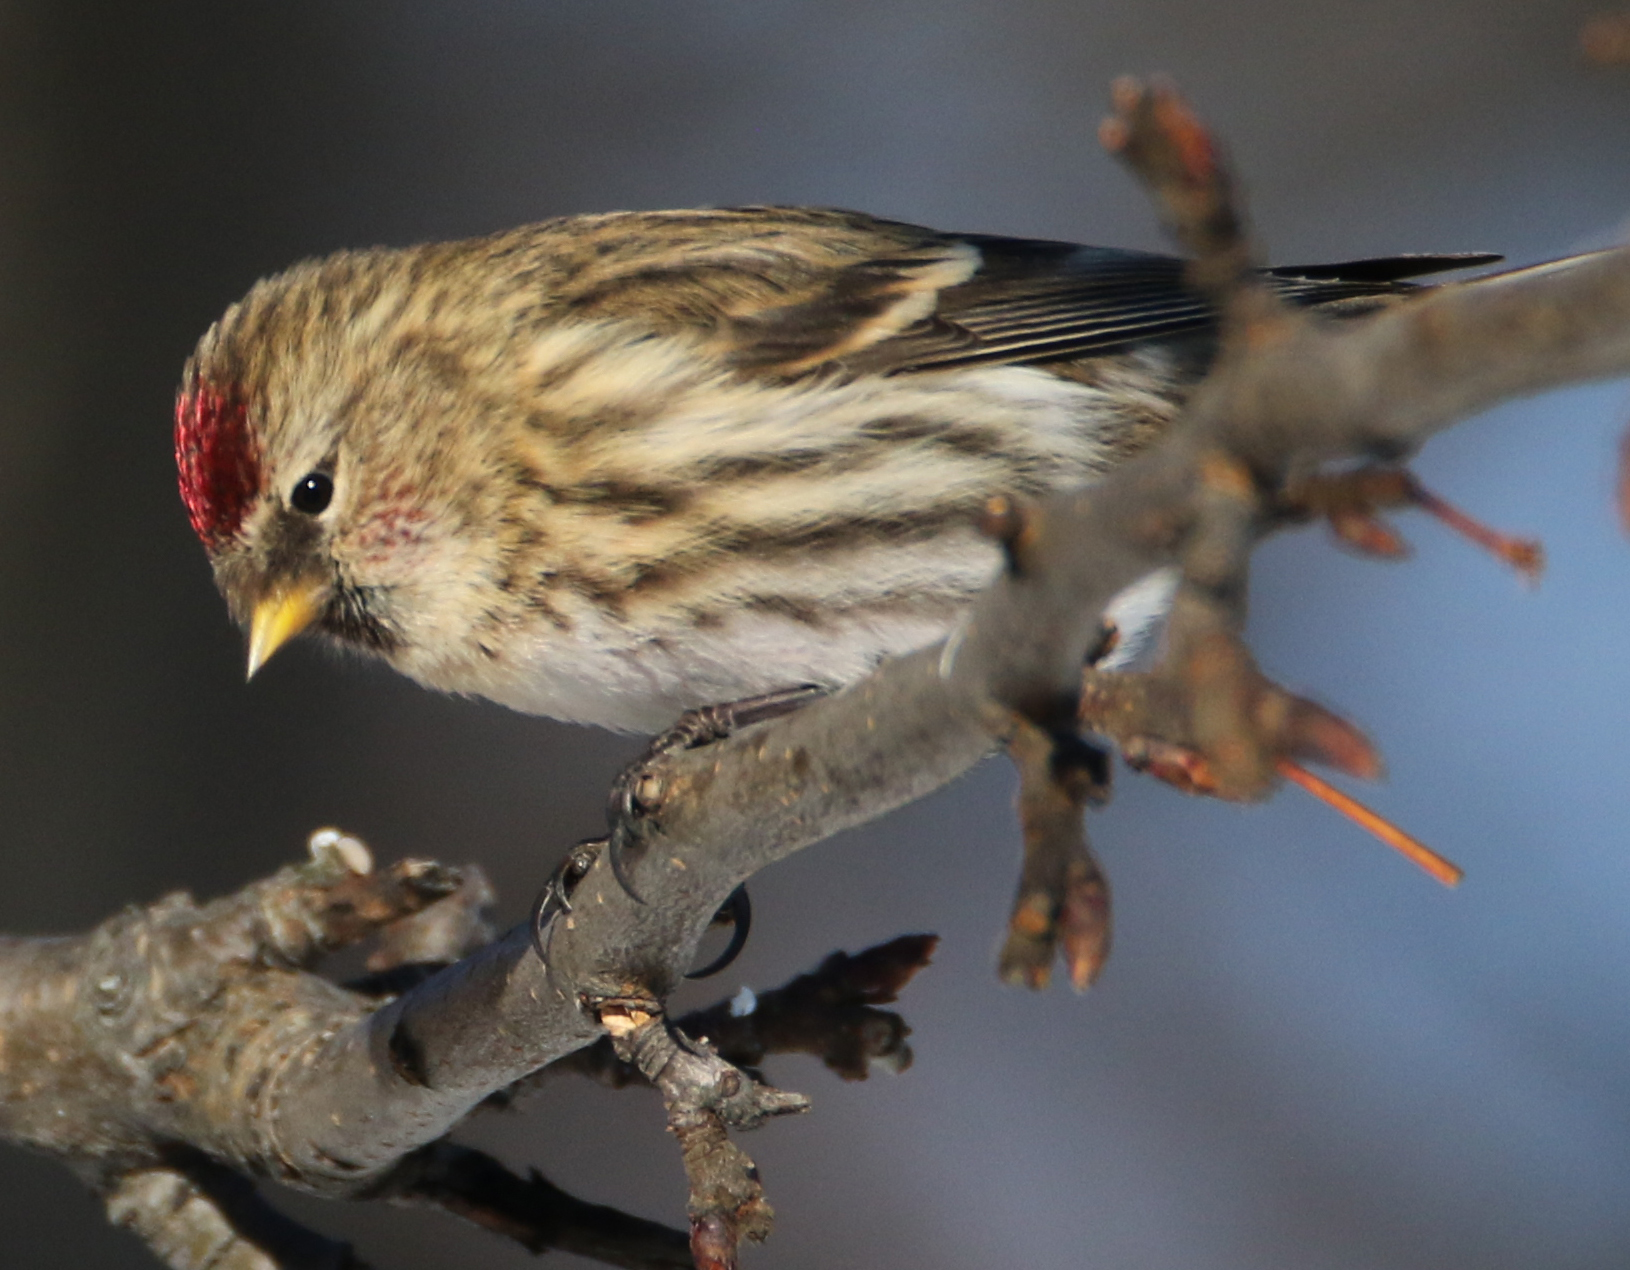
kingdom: Animalia
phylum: Chordata
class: Aves
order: Passeriformes
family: Fringillidae
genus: Acanthis
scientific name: Acanthis flammea
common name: Common redpoll
